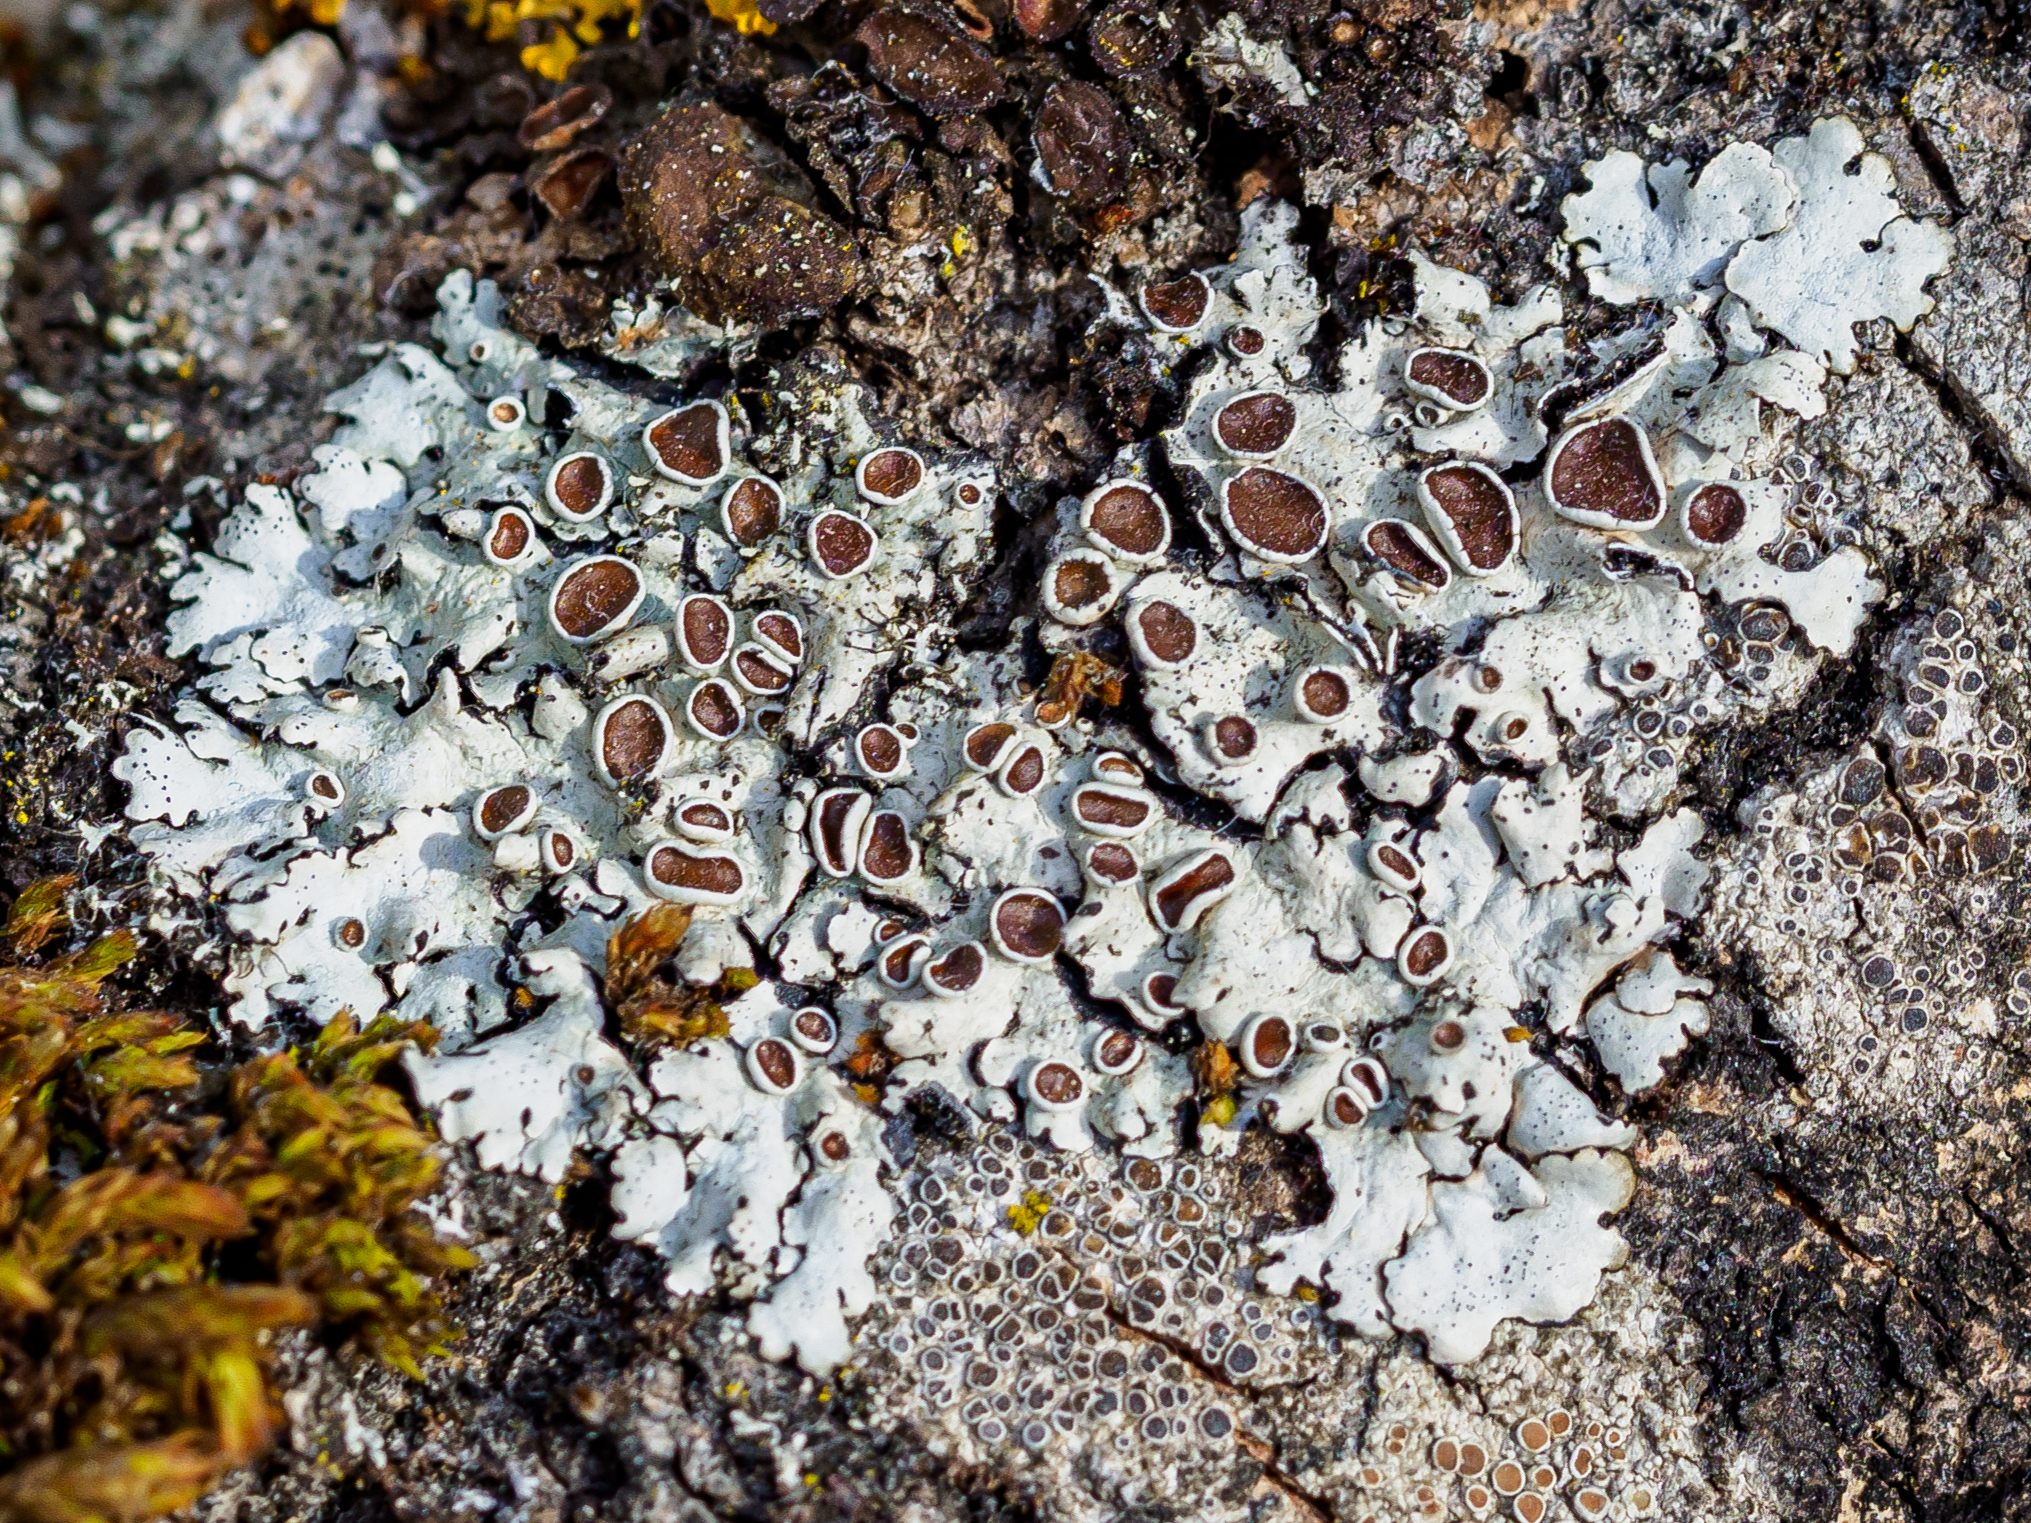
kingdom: Fungi
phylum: Ascomycota
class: Lecanoromycetes
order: Lecanorales
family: Parmeliaceae
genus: Parmelina
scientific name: Parmelina quercina
